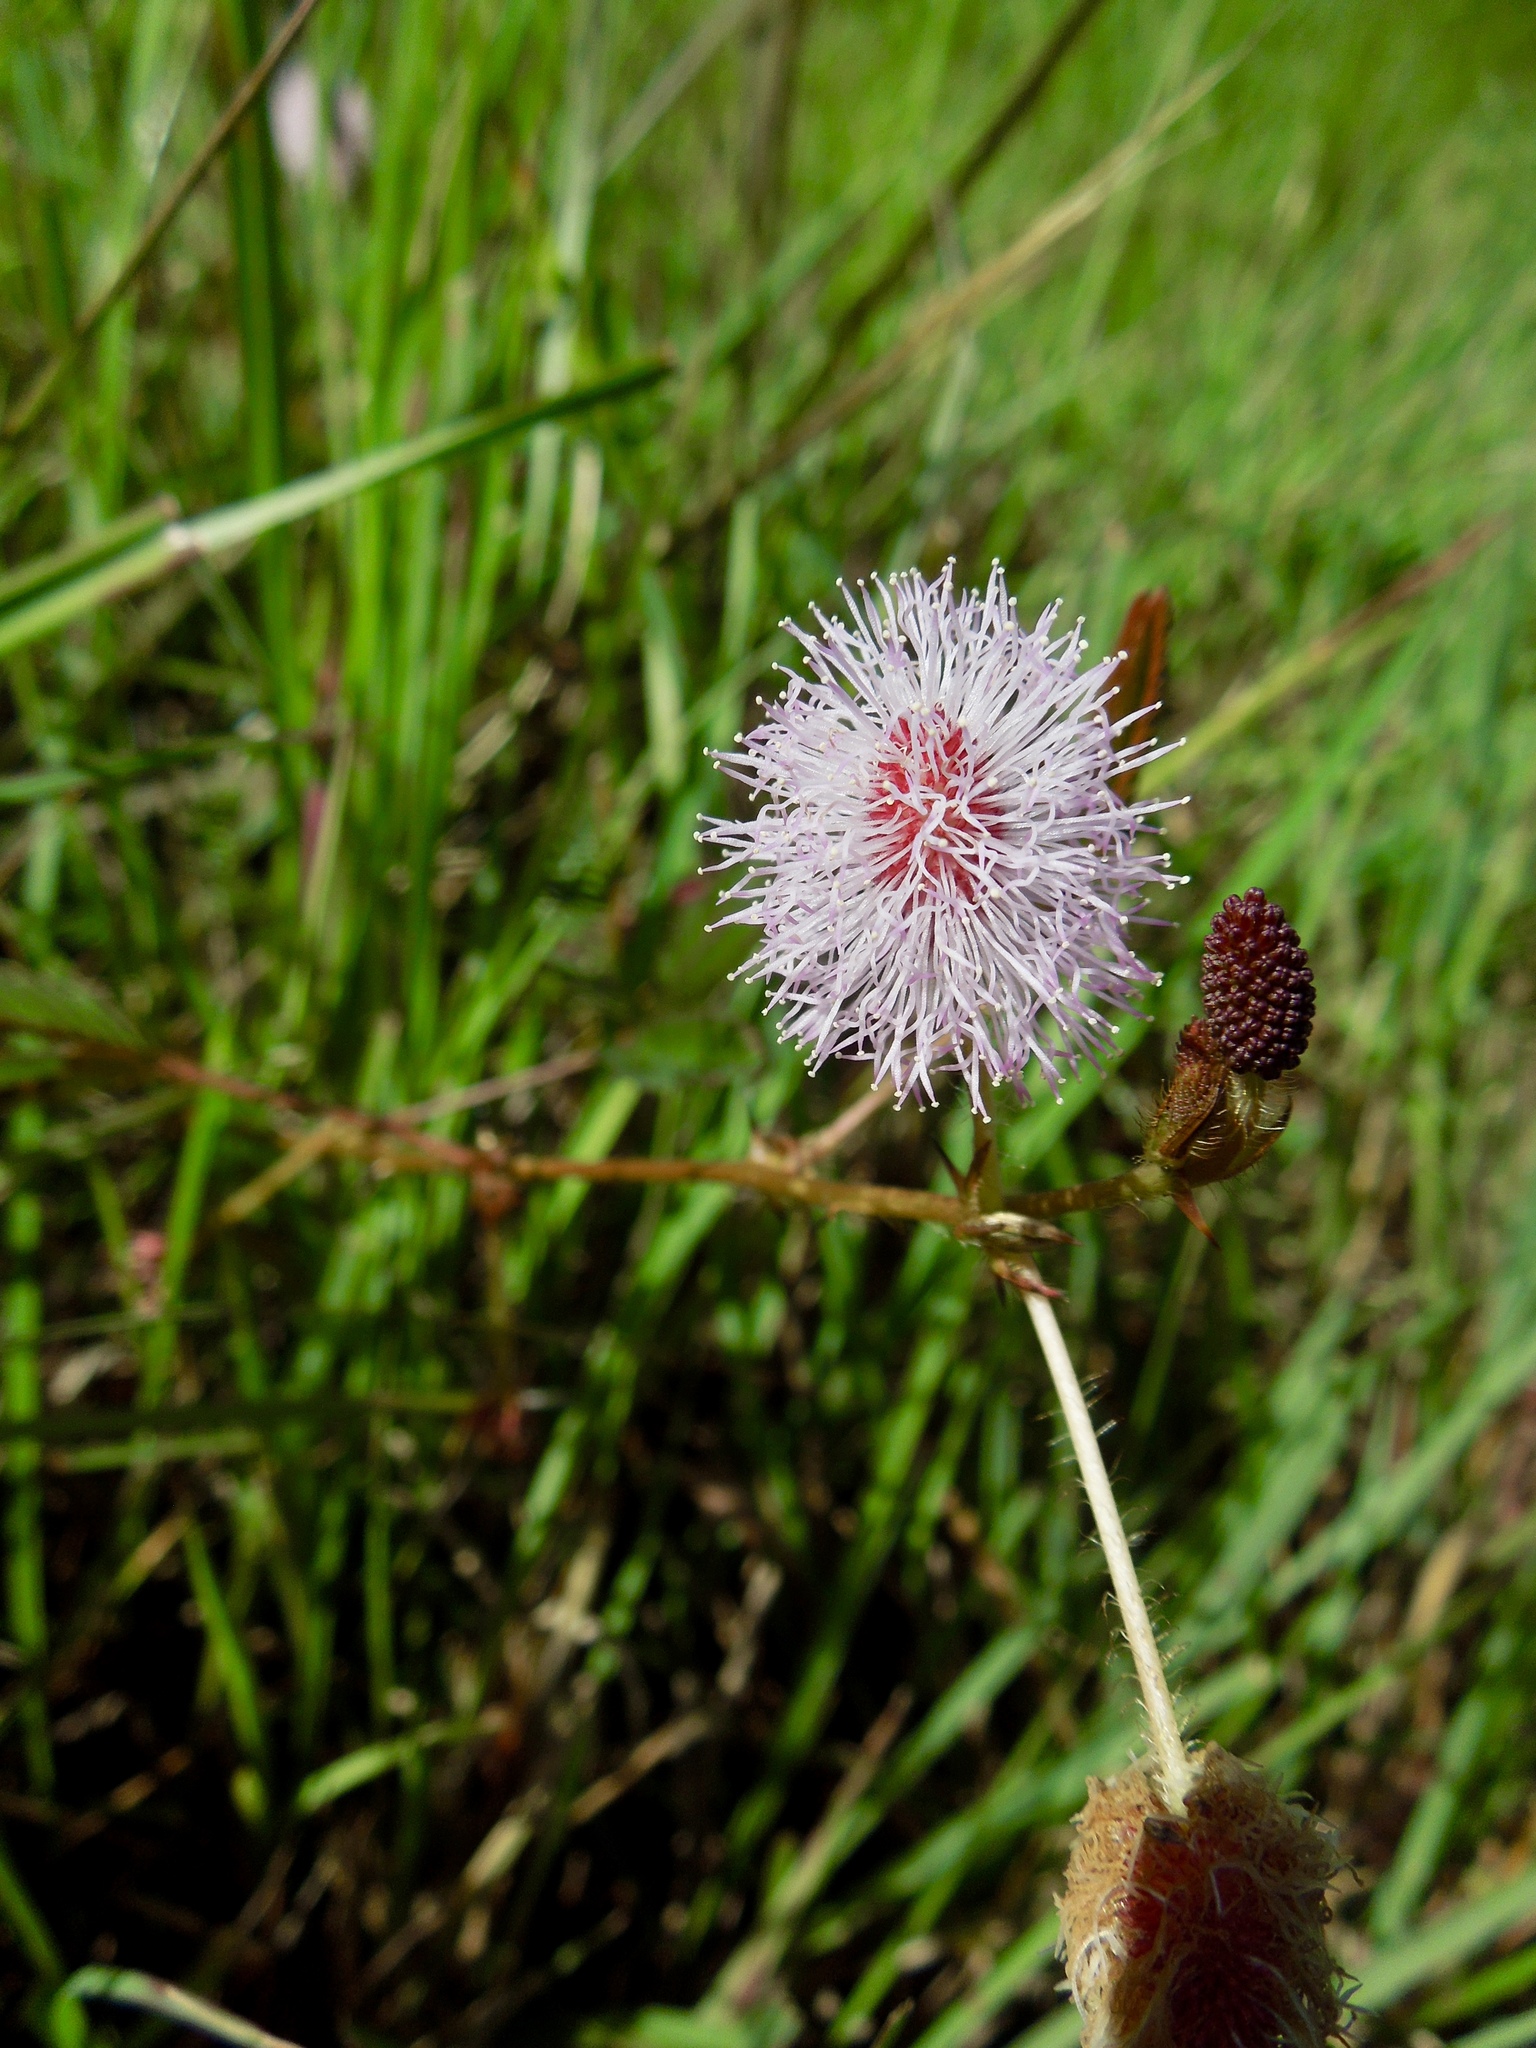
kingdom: Plantae
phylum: Tracheophyta
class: Magnoliopsida
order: Fabales
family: Fabaceae
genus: Mimosa
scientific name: Mimosa pudica
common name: Sensitive plant
